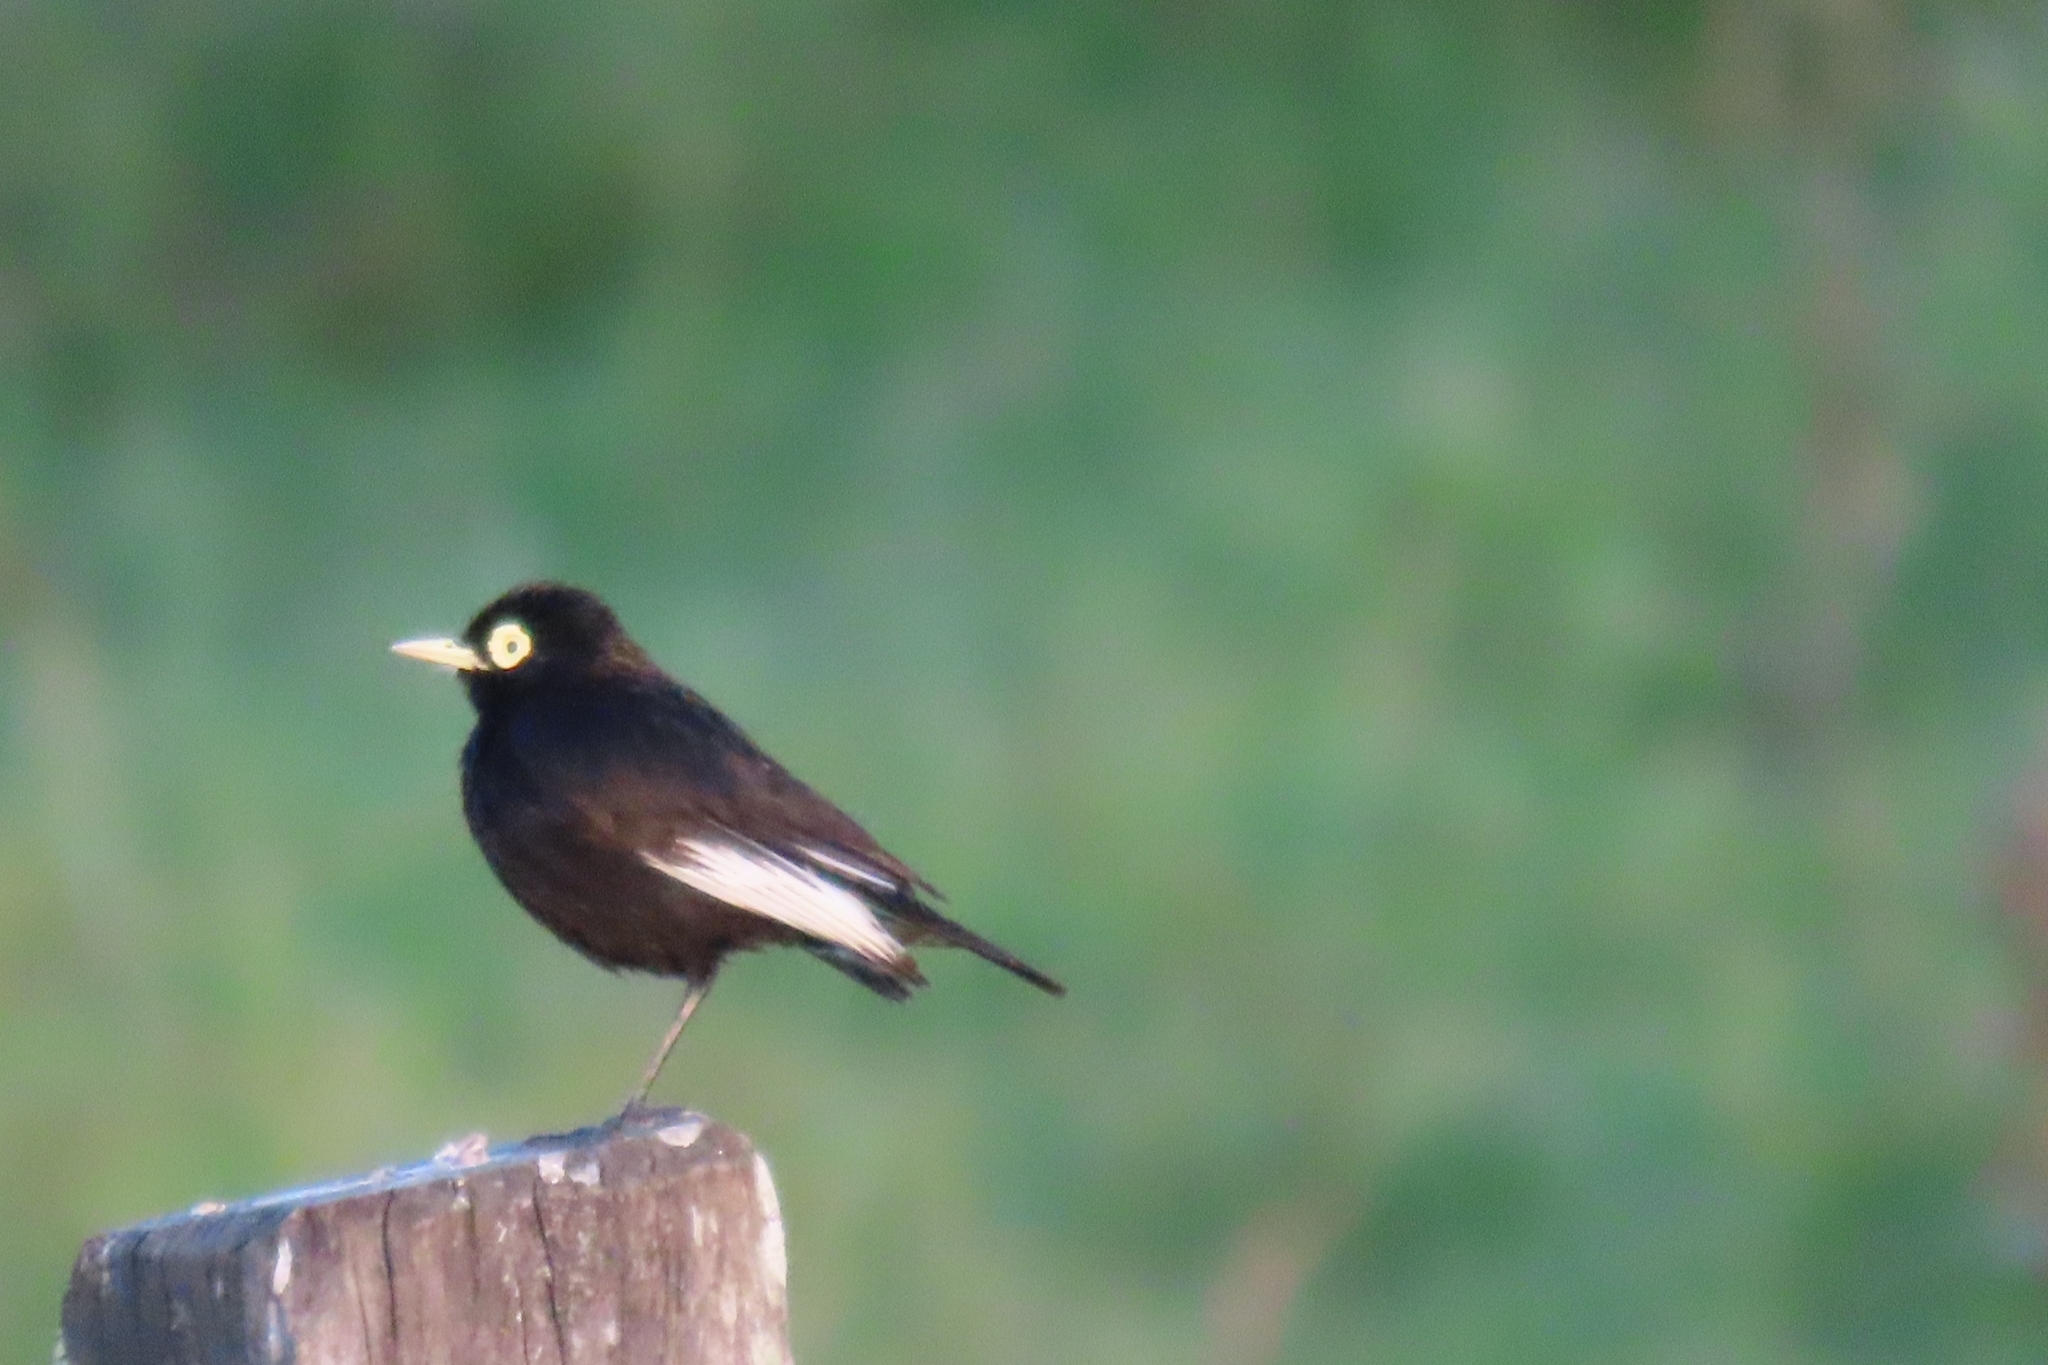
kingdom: Animalia
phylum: Chordata
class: Aves
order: Passeriformes
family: Tyrannidae
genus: Hymenops
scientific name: Hymenops perspicillatus
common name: Spectacled tyrant
